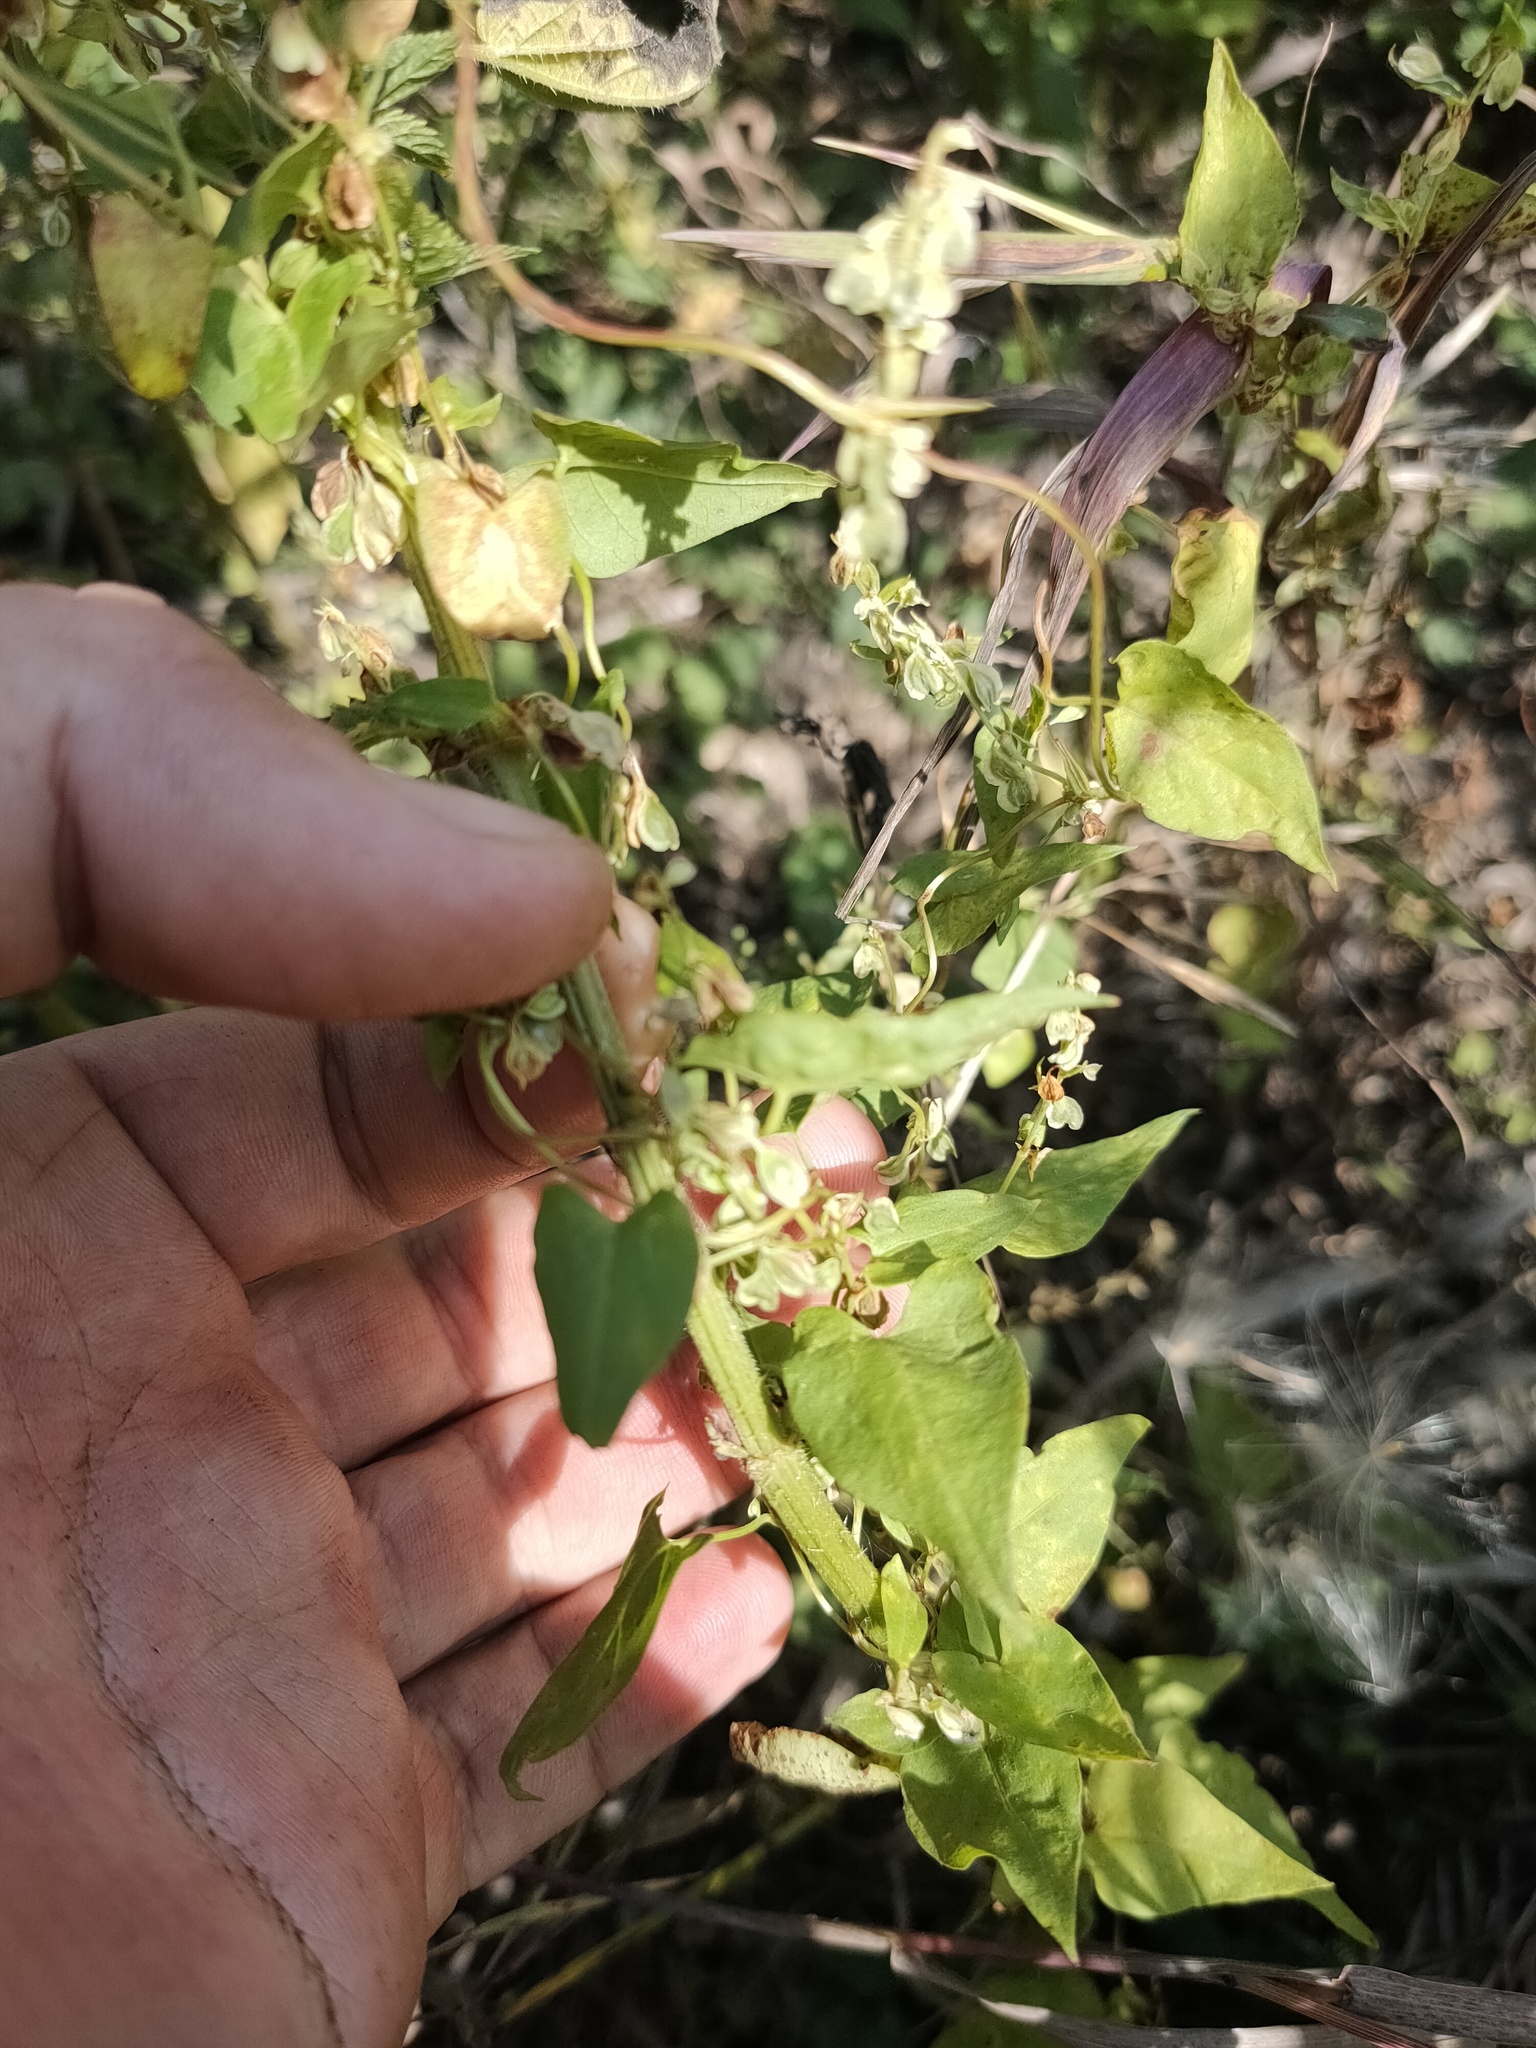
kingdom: Plantae
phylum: Tracheophyta
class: Magnoliopsida
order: Caryophyllales
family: Polygonaceae
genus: Fallopia
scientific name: Fallopia dumetorum
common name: Copse-bindweed
